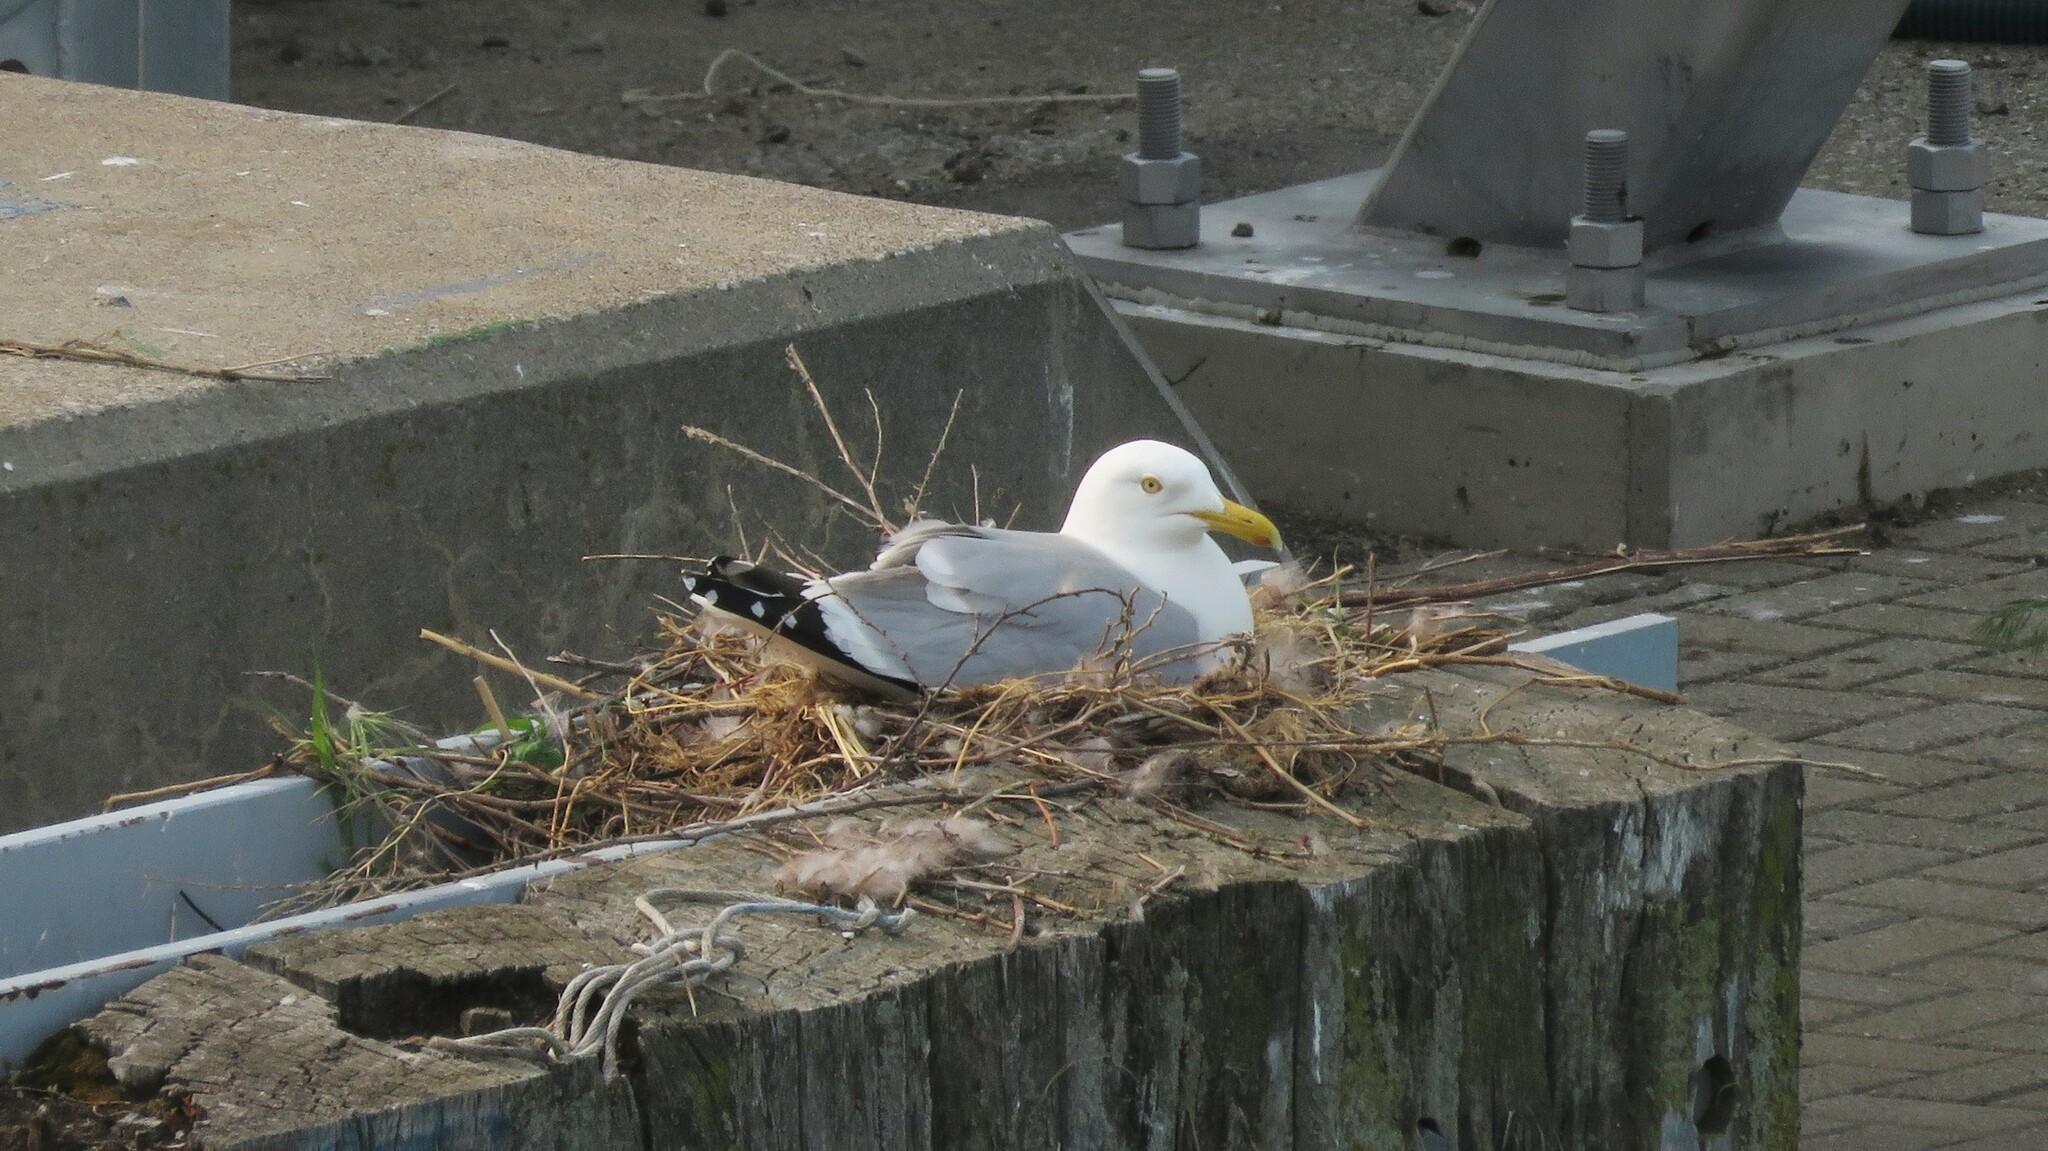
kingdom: Animalia
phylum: Chordata
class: Aves
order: Charadriiformes
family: Laridae
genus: Larus
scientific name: Larus argentatus
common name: Herring gull
